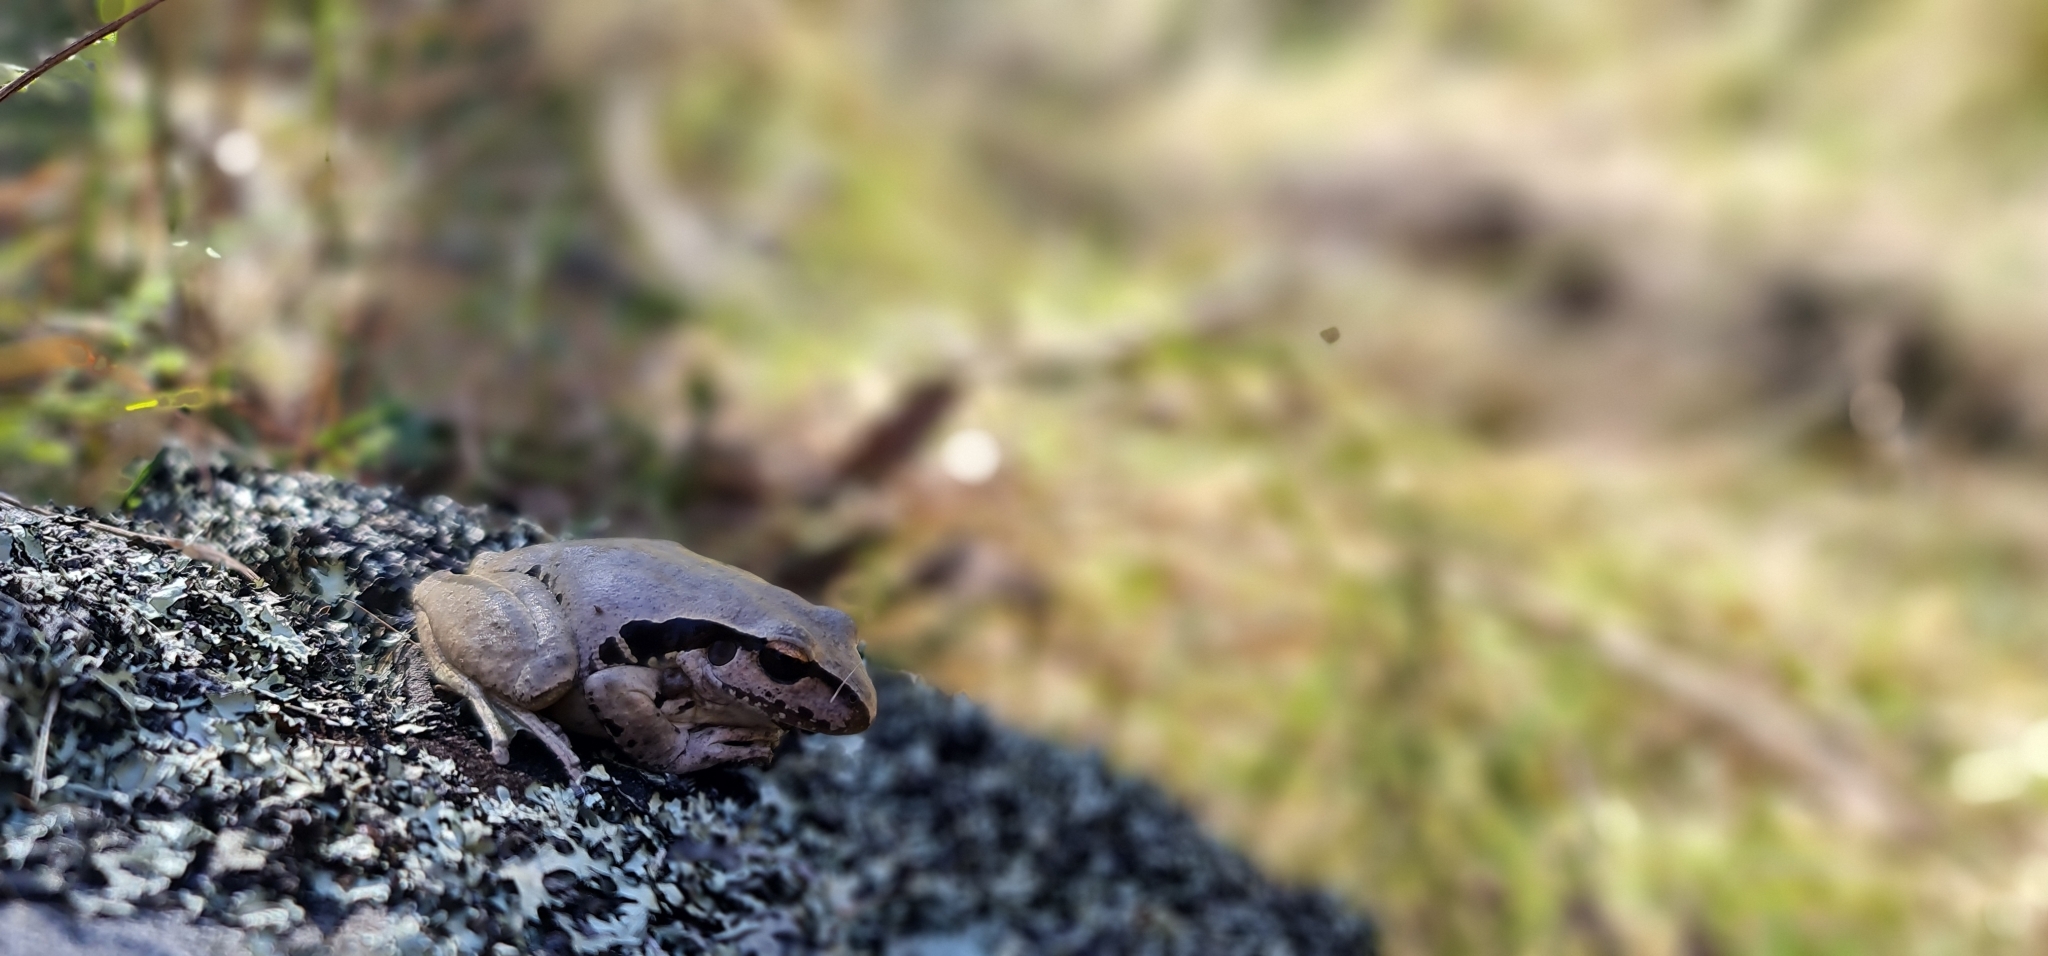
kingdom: Animalia
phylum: Chordata
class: Amphibia
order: Anura
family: Pelodryadidae
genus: Ranoidea
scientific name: Ranoidea wilcoxii
